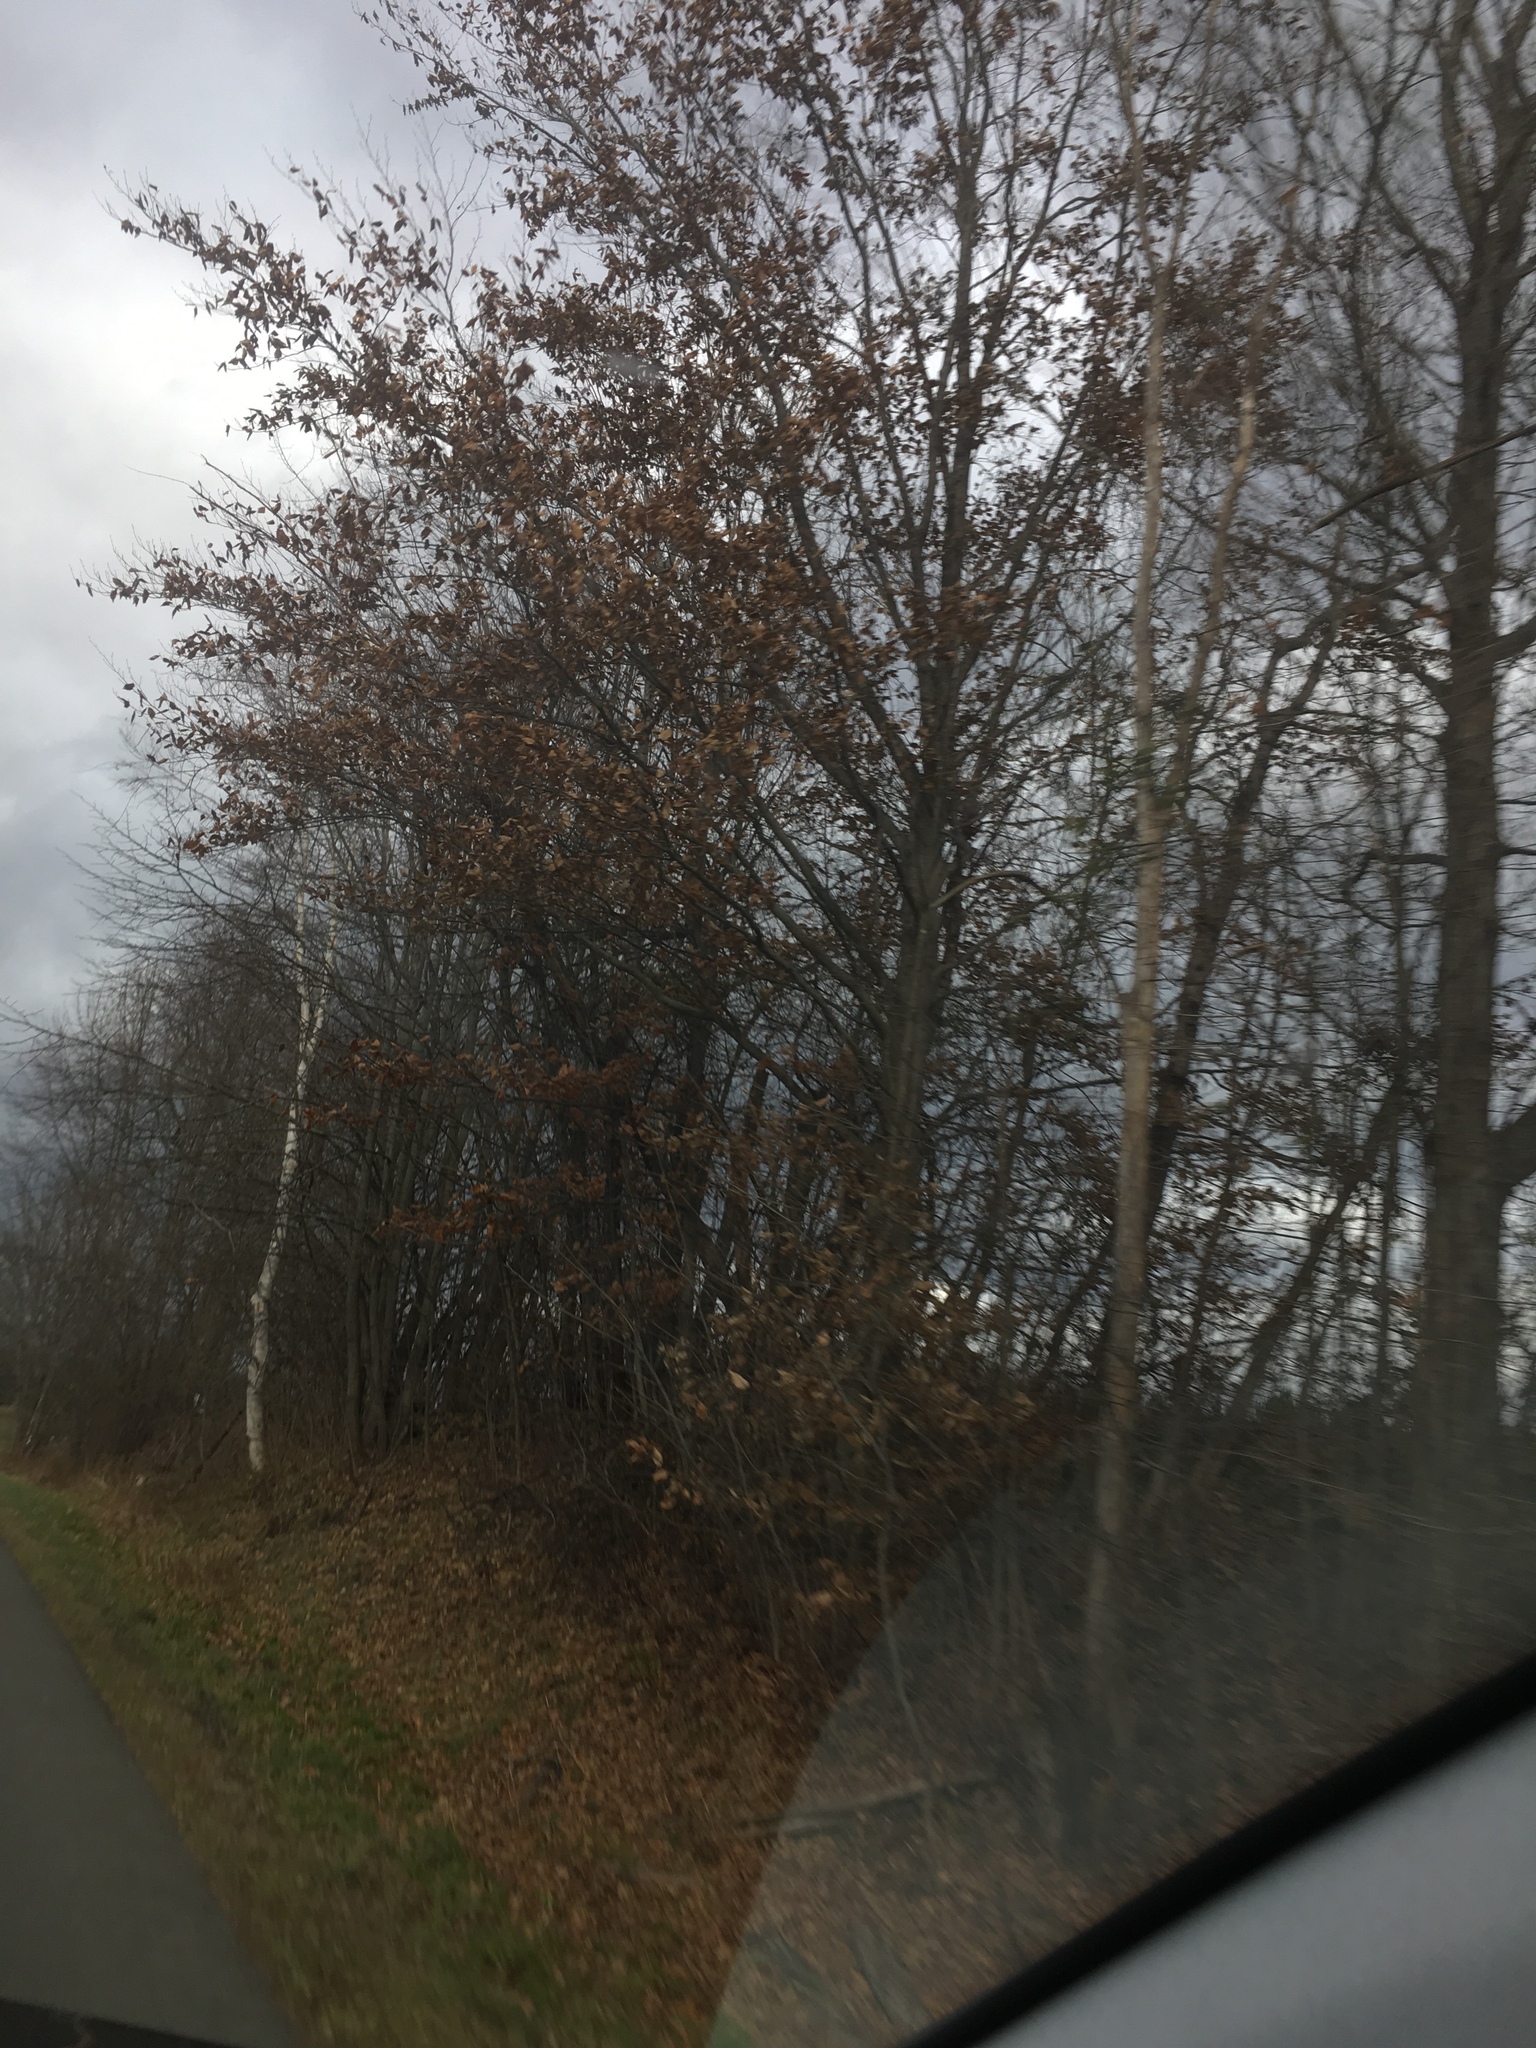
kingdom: Plantae
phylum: Tracheophyta
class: Magnoliopsida
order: Fagales
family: Fagaceae
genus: Fagus
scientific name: Fagus grandifolia
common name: American beech
